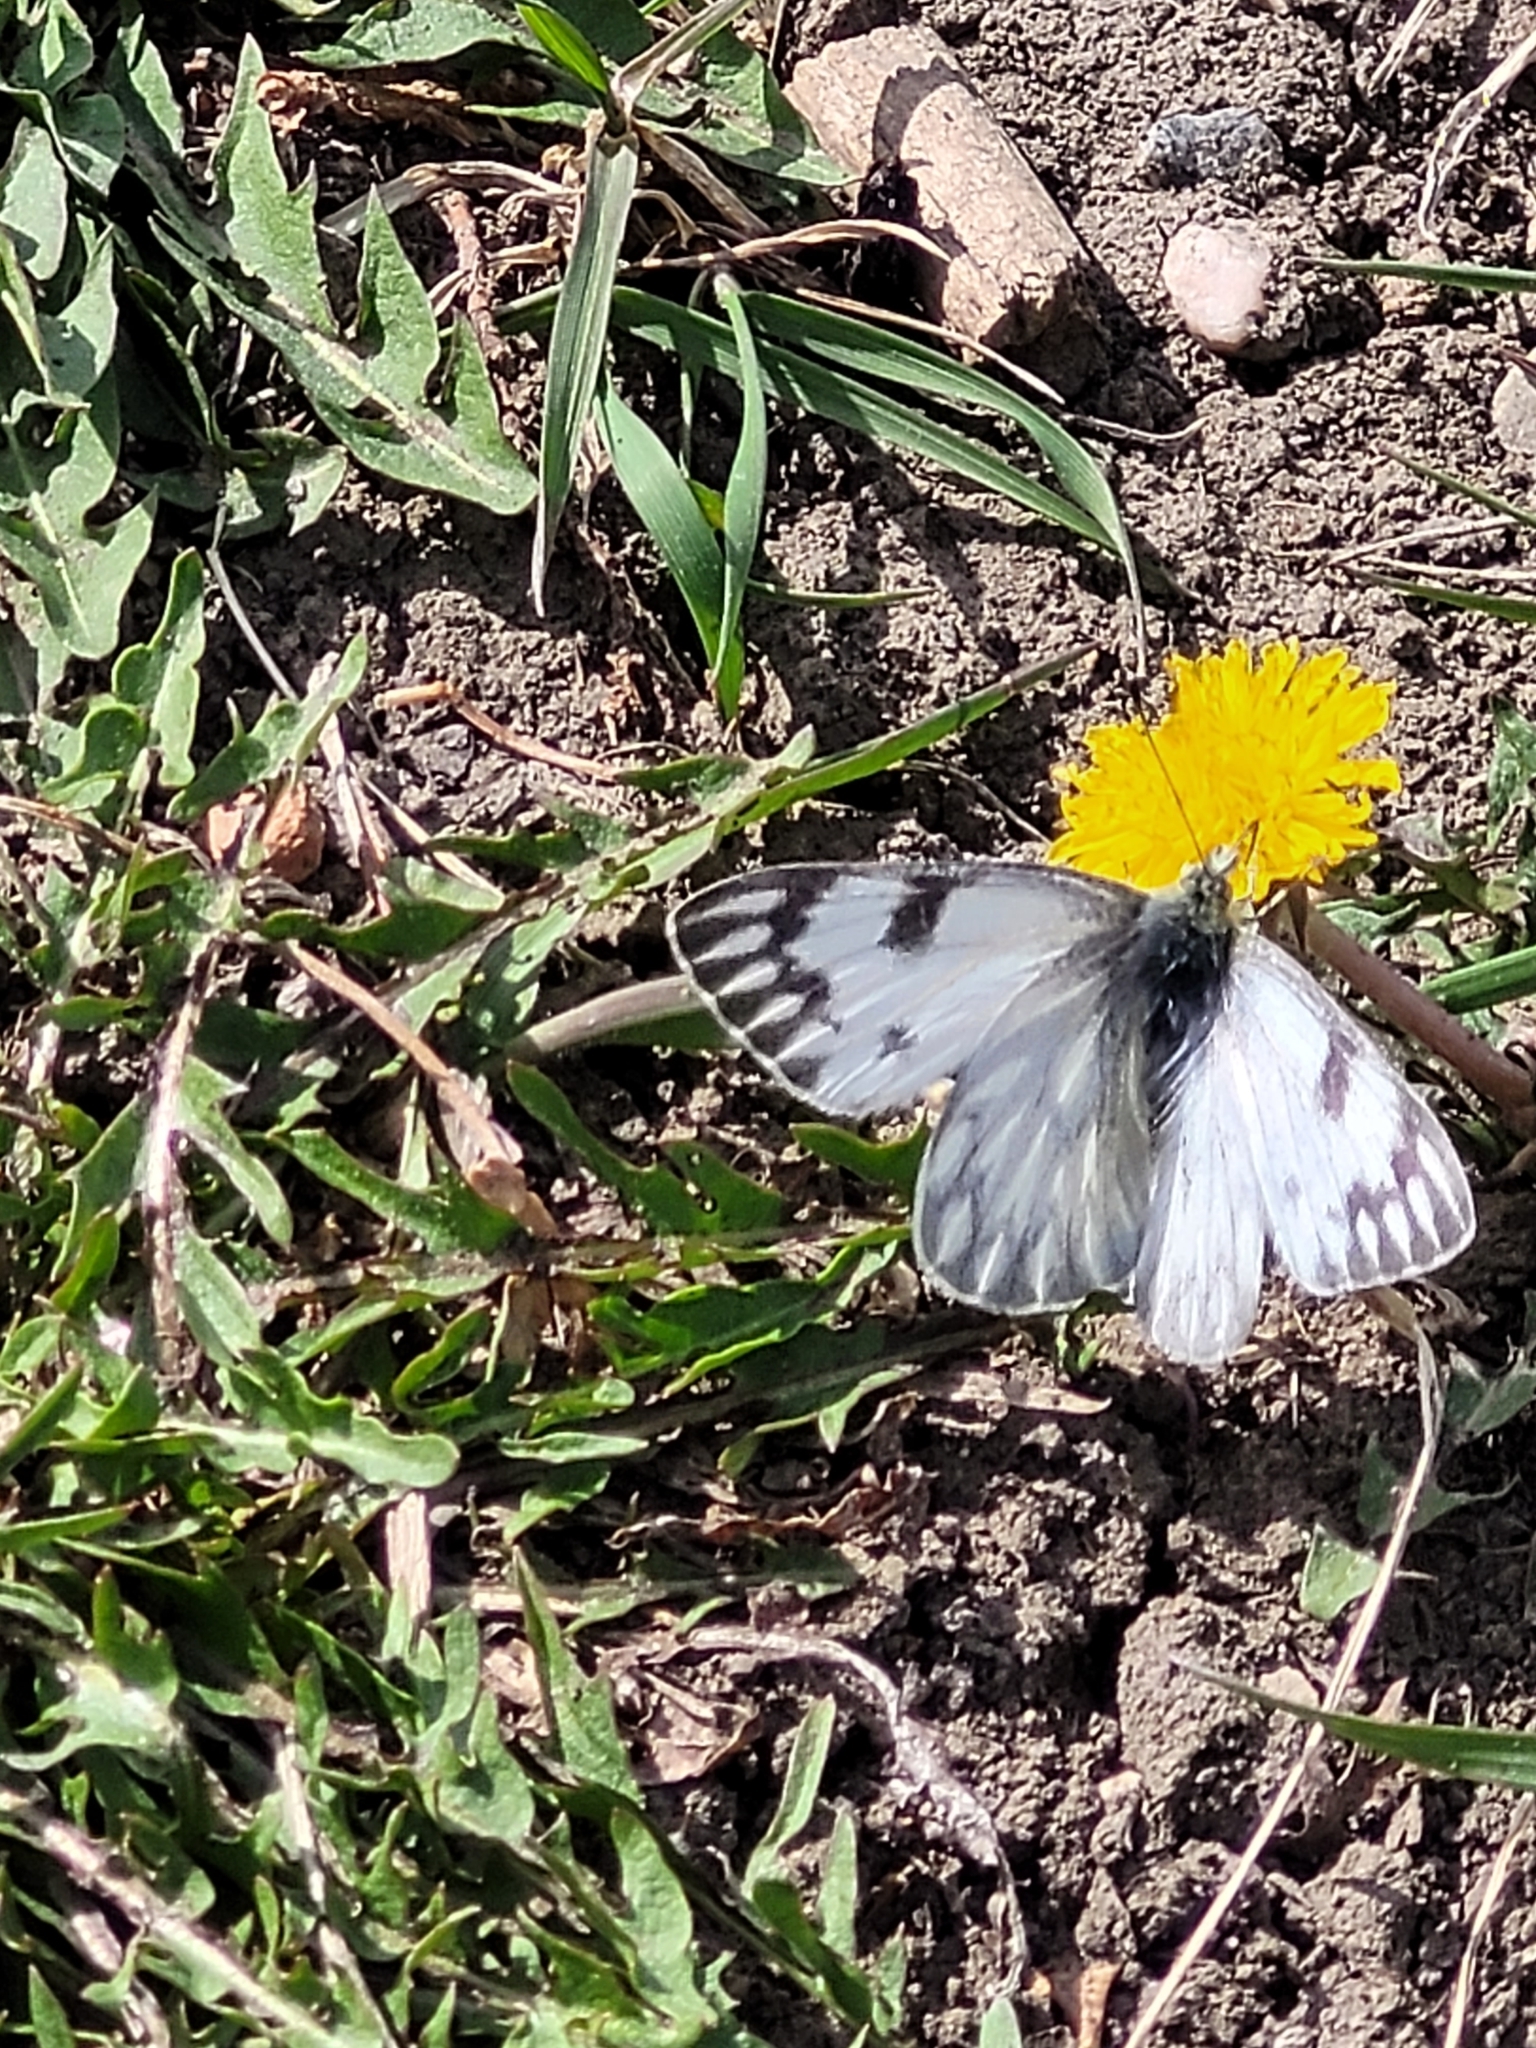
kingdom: Animalia
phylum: Arthropoda
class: Insecta
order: Lepidoptera
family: Pieridae
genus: Pontia
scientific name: Pontia protodice
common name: Checkered white
